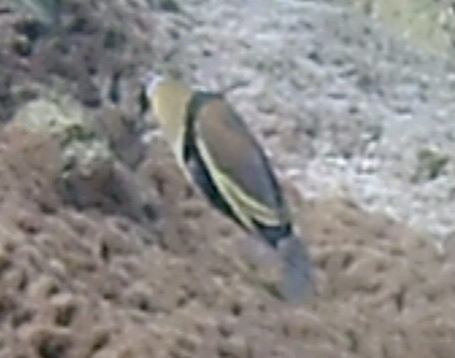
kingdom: Animalia
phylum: Chordata
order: Tetraodontiformes
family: Balistidae
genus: Rhinecanthus
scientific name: Rhinecanthus rectangulus
